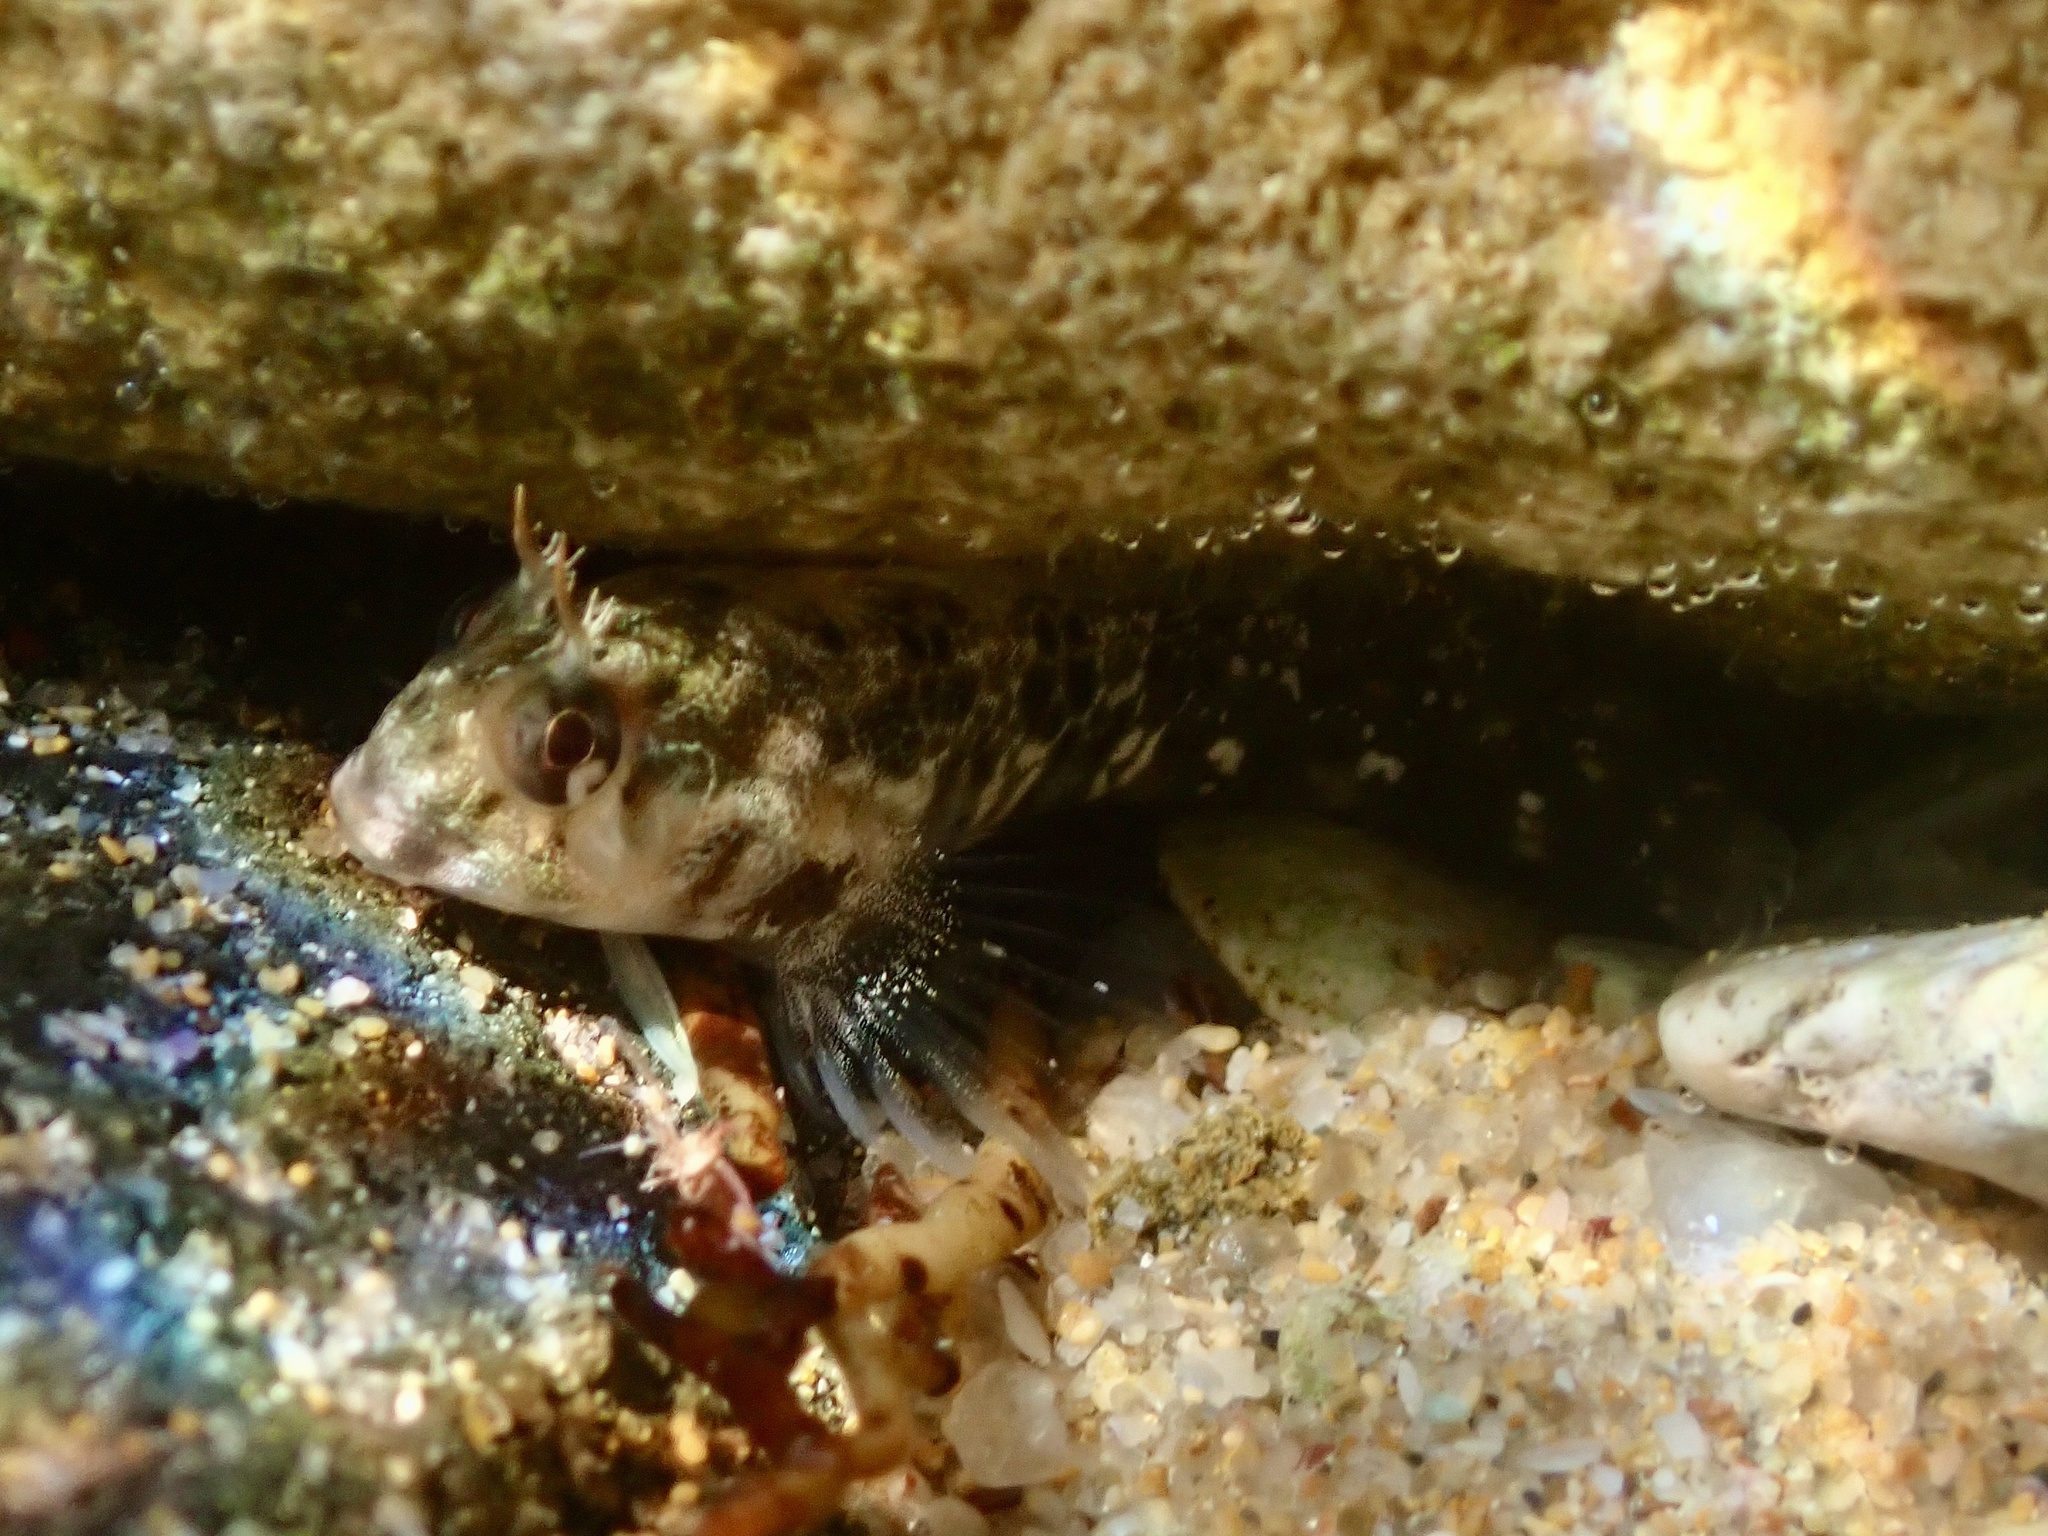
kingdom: Animalia
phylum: Chordata
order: Perciformes
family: Blenniidae
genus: Parablennius
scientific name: Parablennius tasmanianus
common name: Tasmanian blenny
